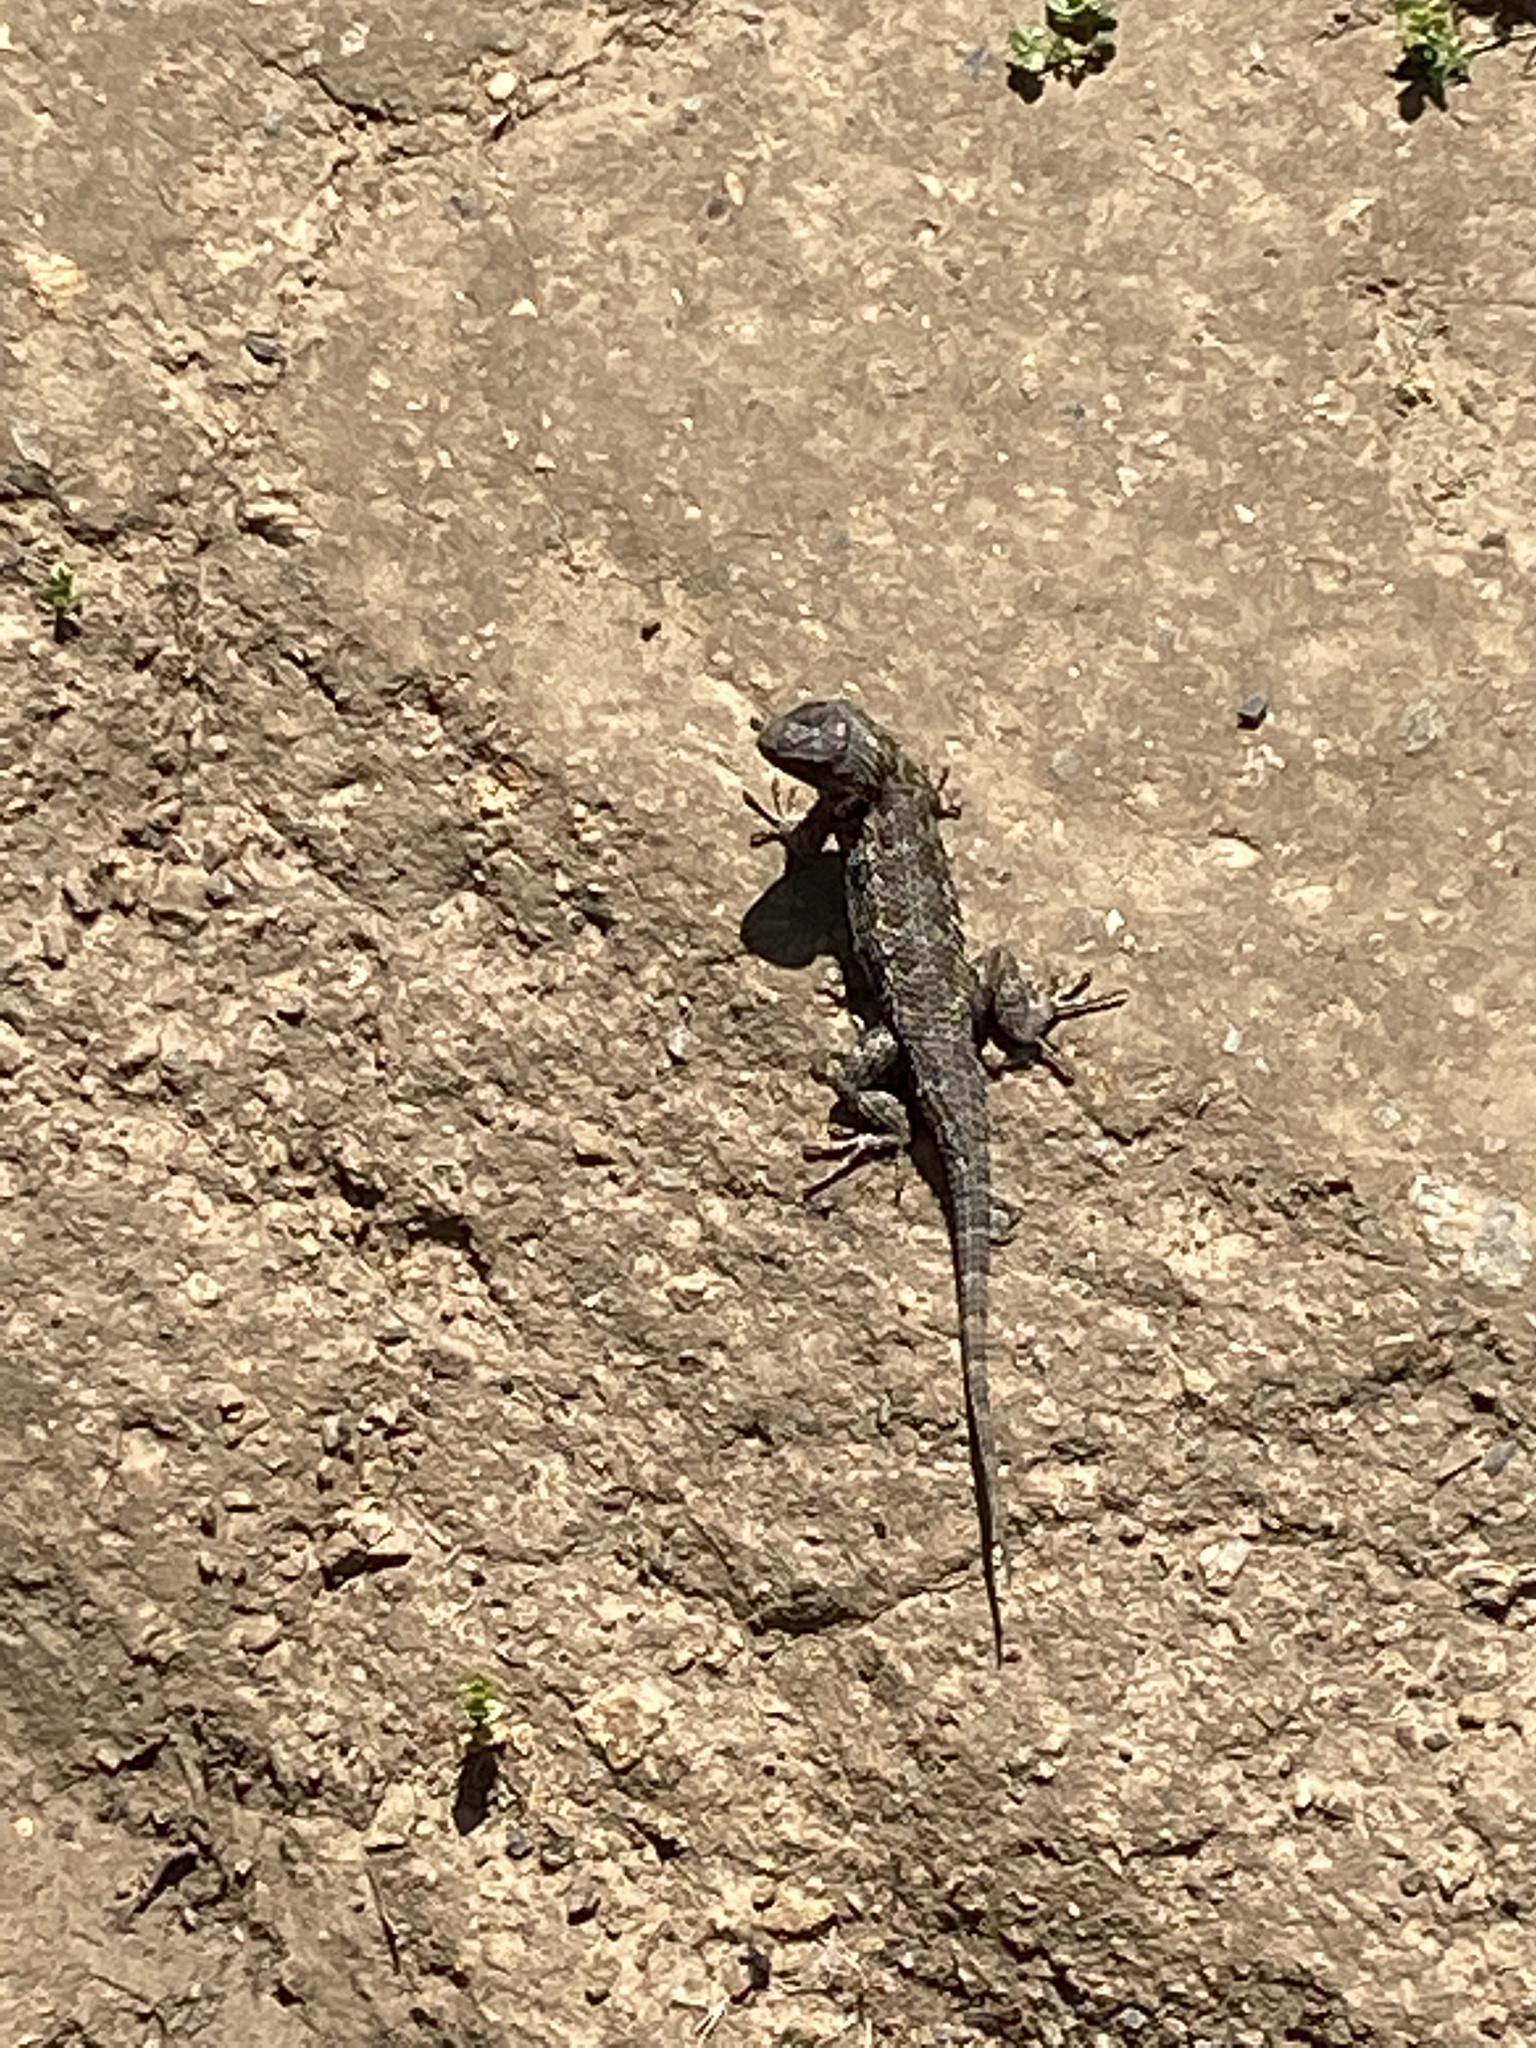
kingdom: Animalia
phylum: Chordata
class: Squamata
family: Phrynosomatidae
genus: Sceloporus
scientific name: Sceloporus occidentalis
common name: Western fence lizard
